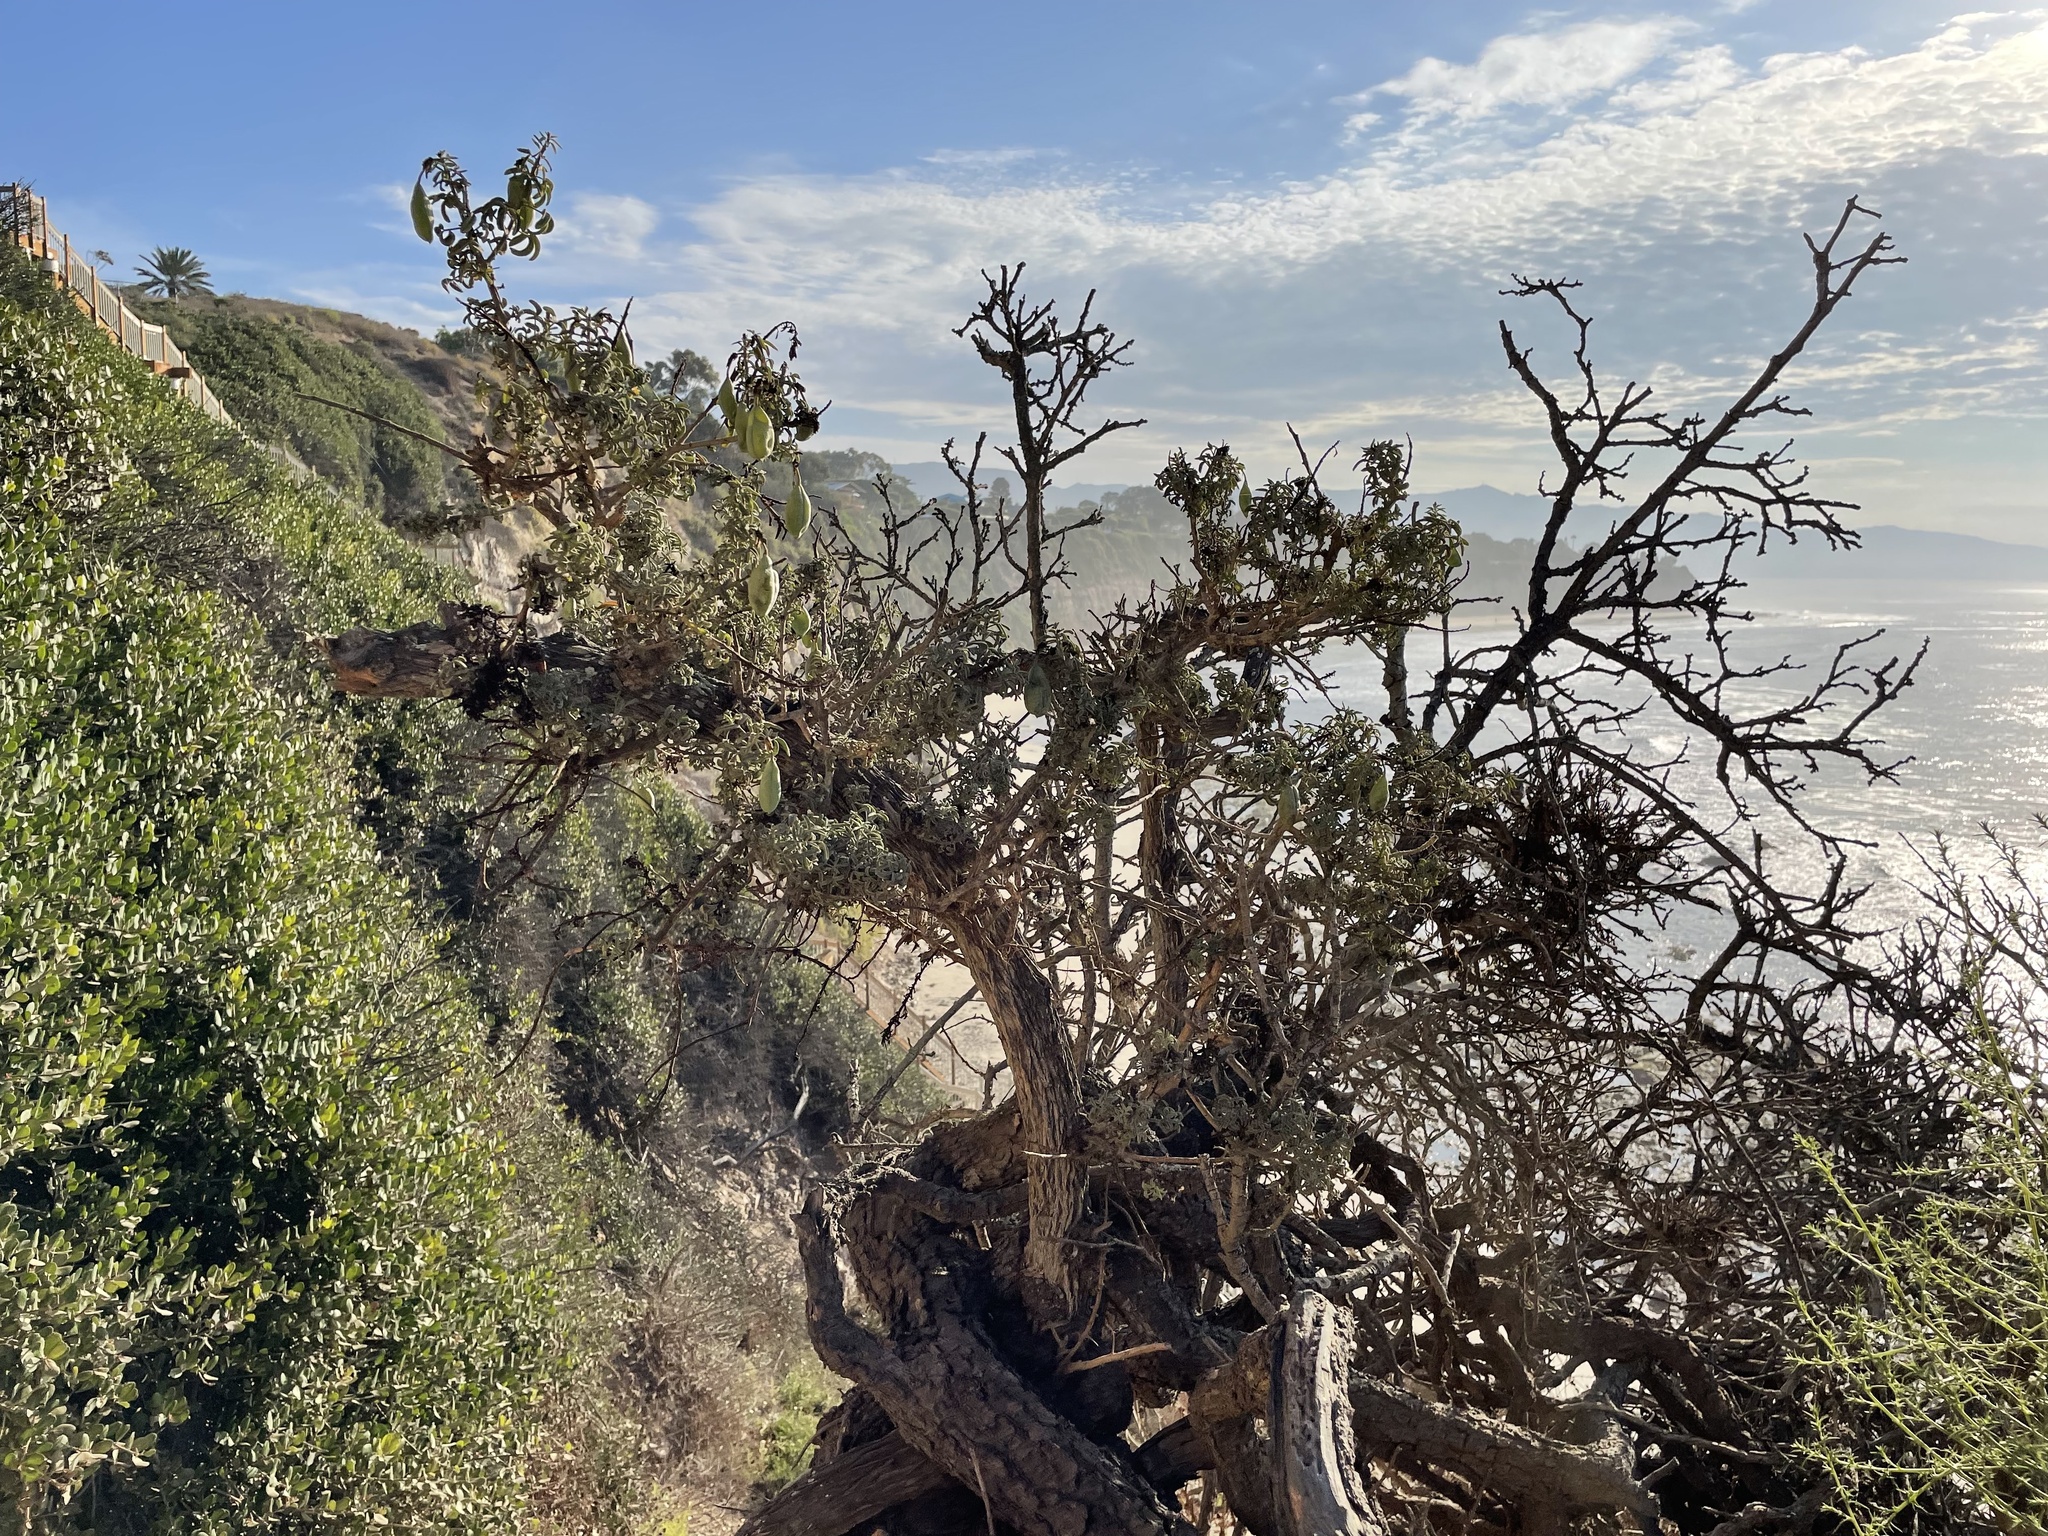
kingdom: Plantae
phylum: Tracheophyta
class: Magnoliopsida
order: Brassicales
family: Cleomaceae
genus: Cleomella
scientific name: Cleomella arborea
